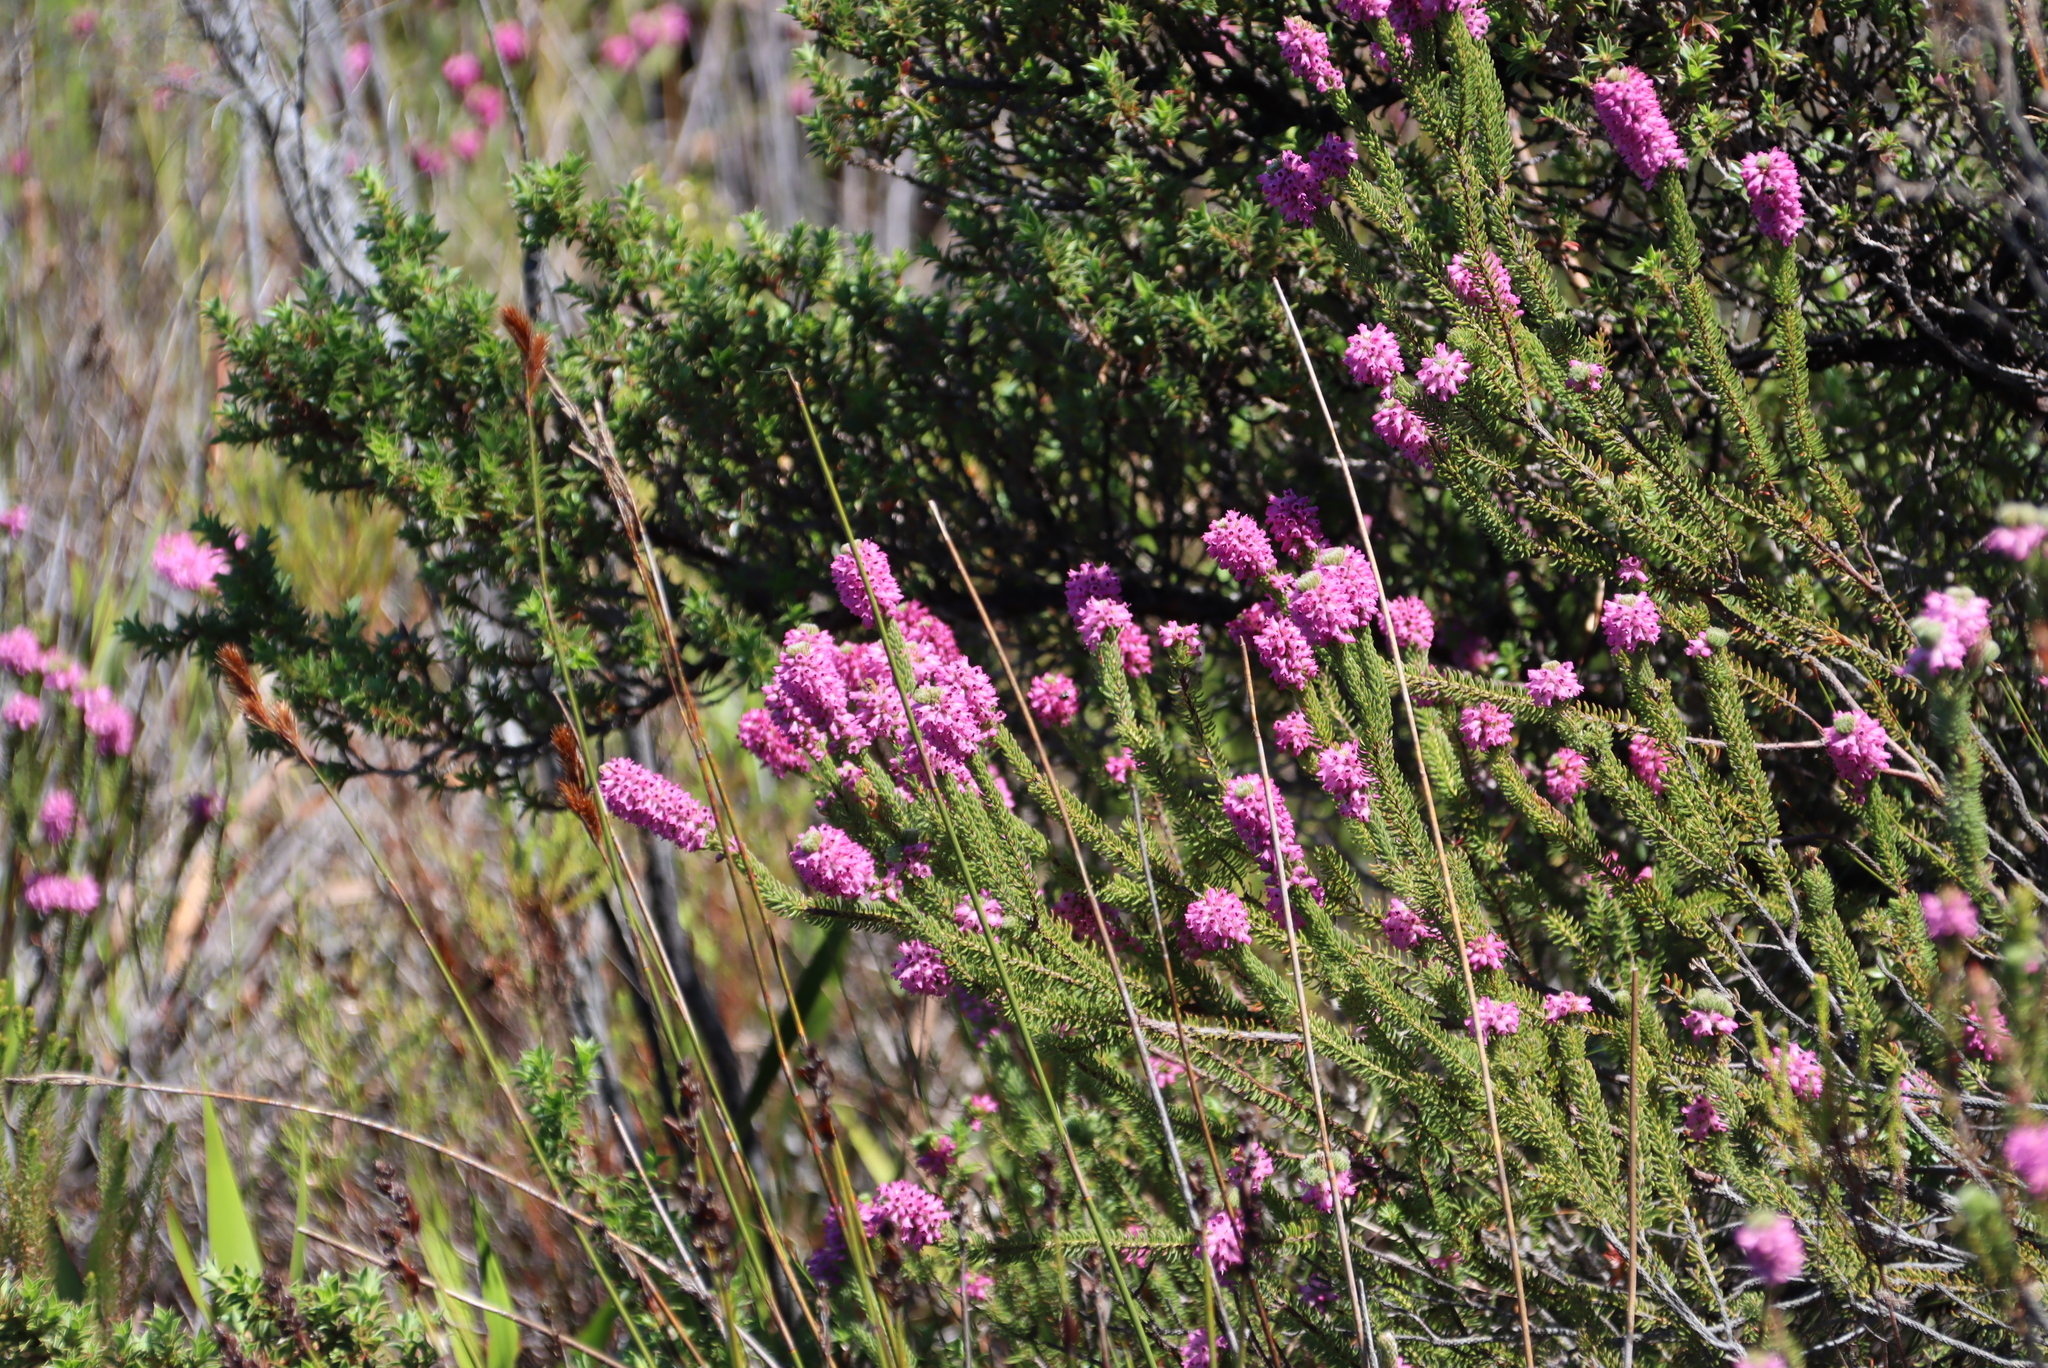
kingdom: Plantae
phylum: Tracheophyta
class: Magnoliopsida
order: Ericales
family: Ericaceae
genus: Erica
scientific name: Erica empetrina
